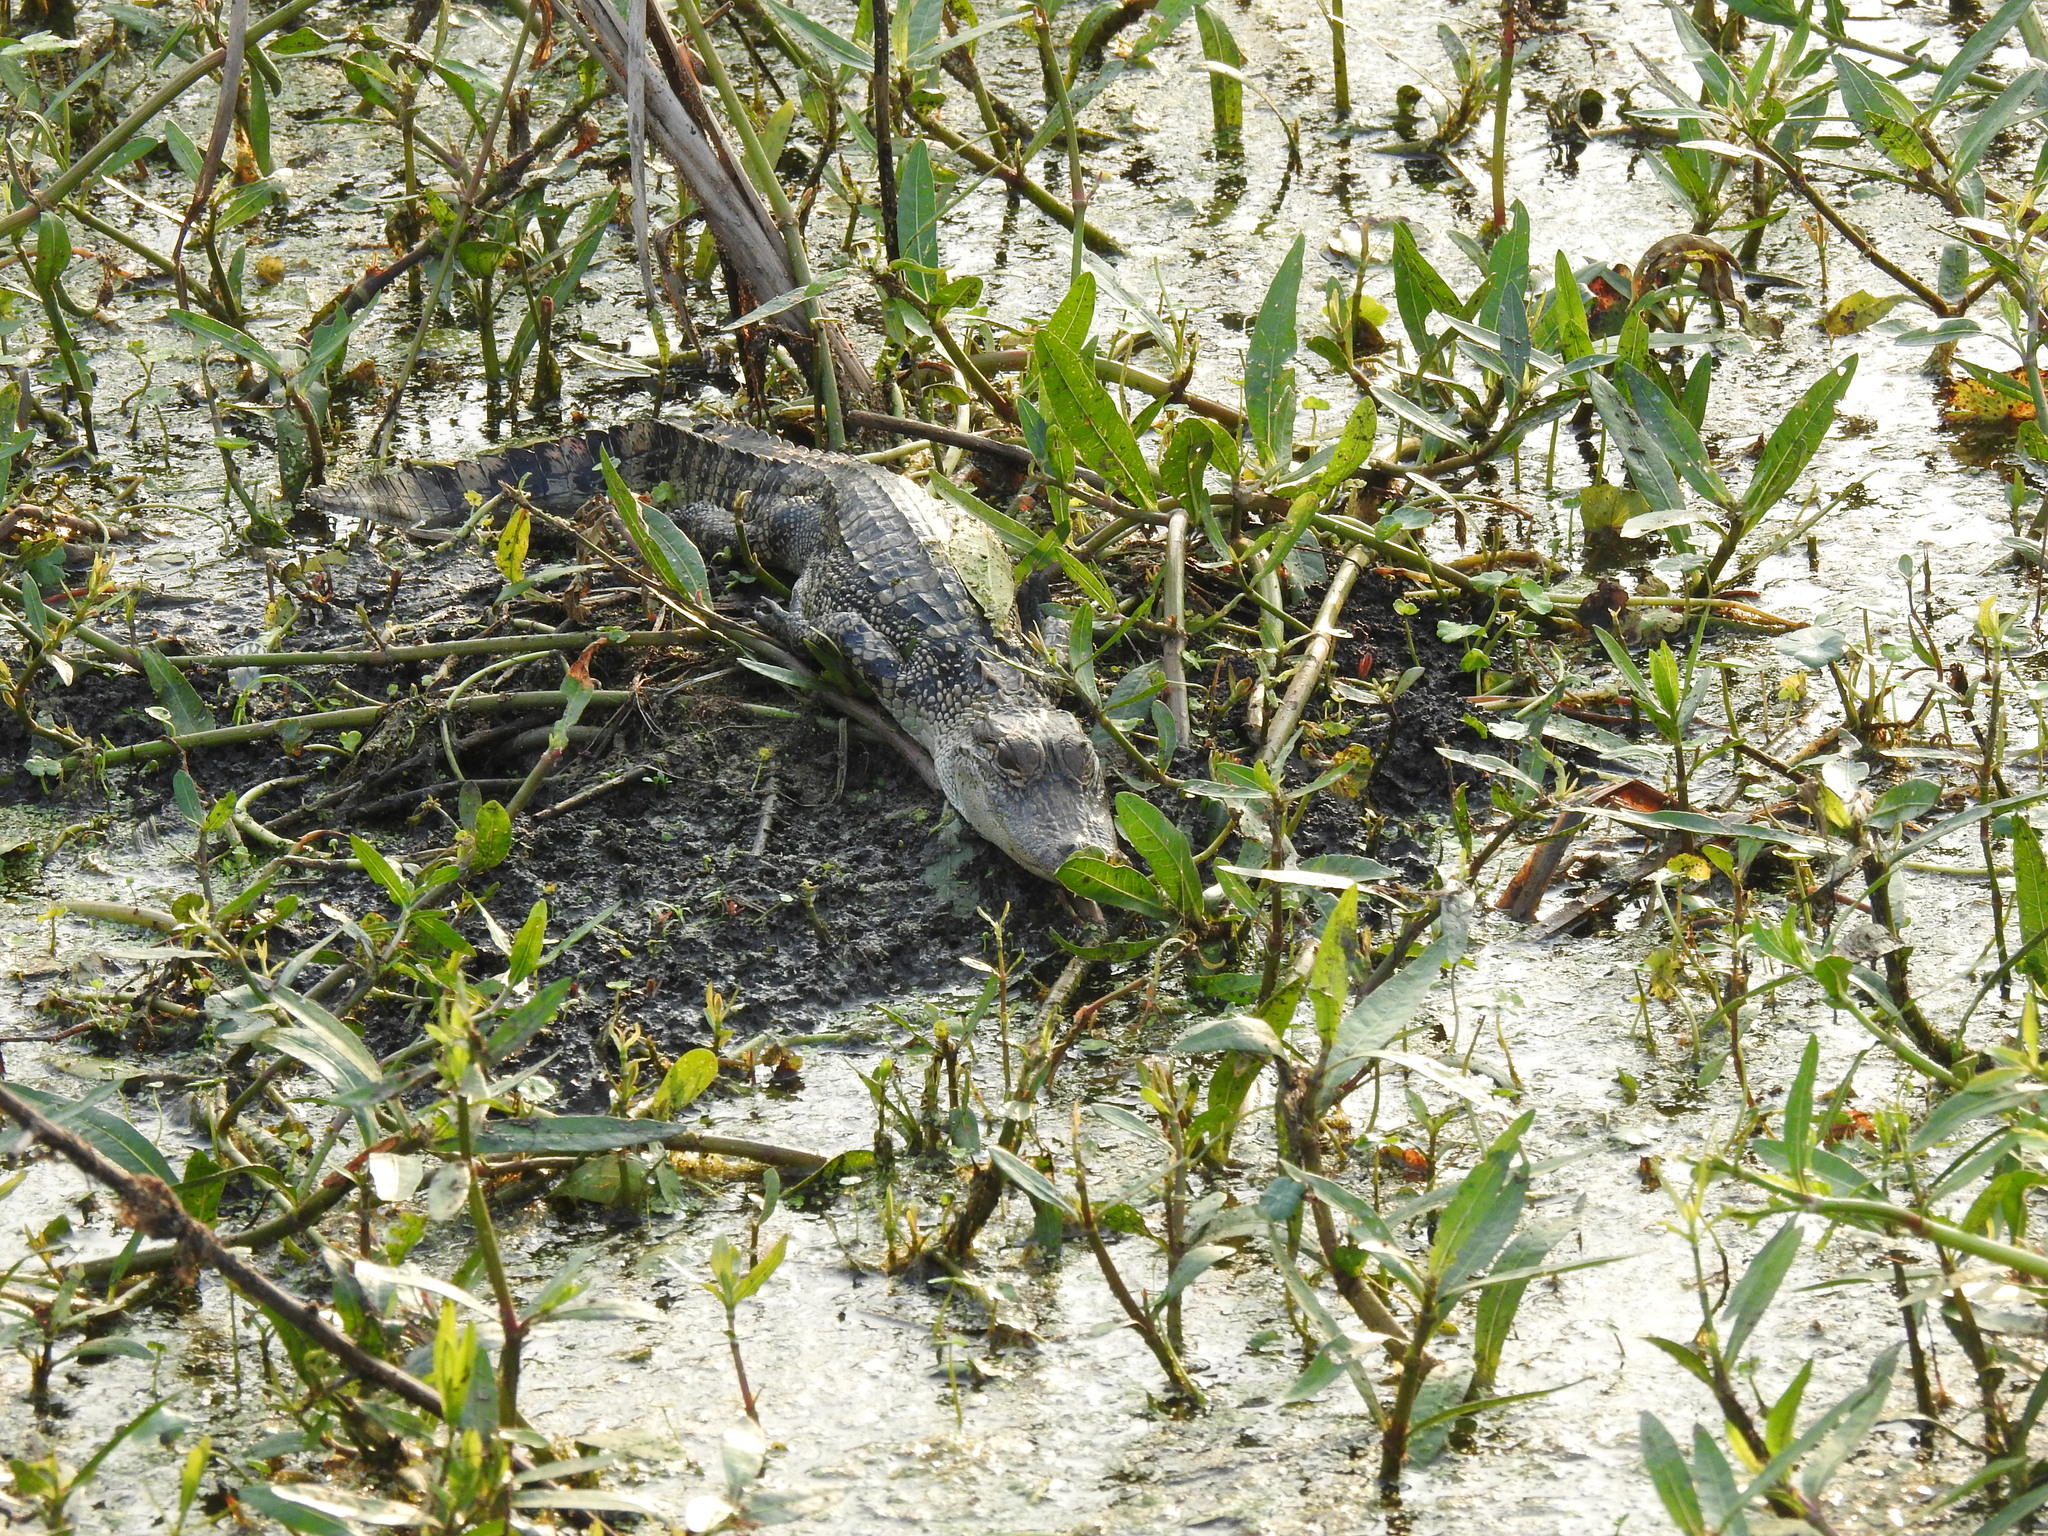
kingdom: Animalia
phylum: Chordata
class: Crocodylia
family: Alligatoridae
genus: Alligator
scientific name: Alligator mississippiensis
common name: American alligator
